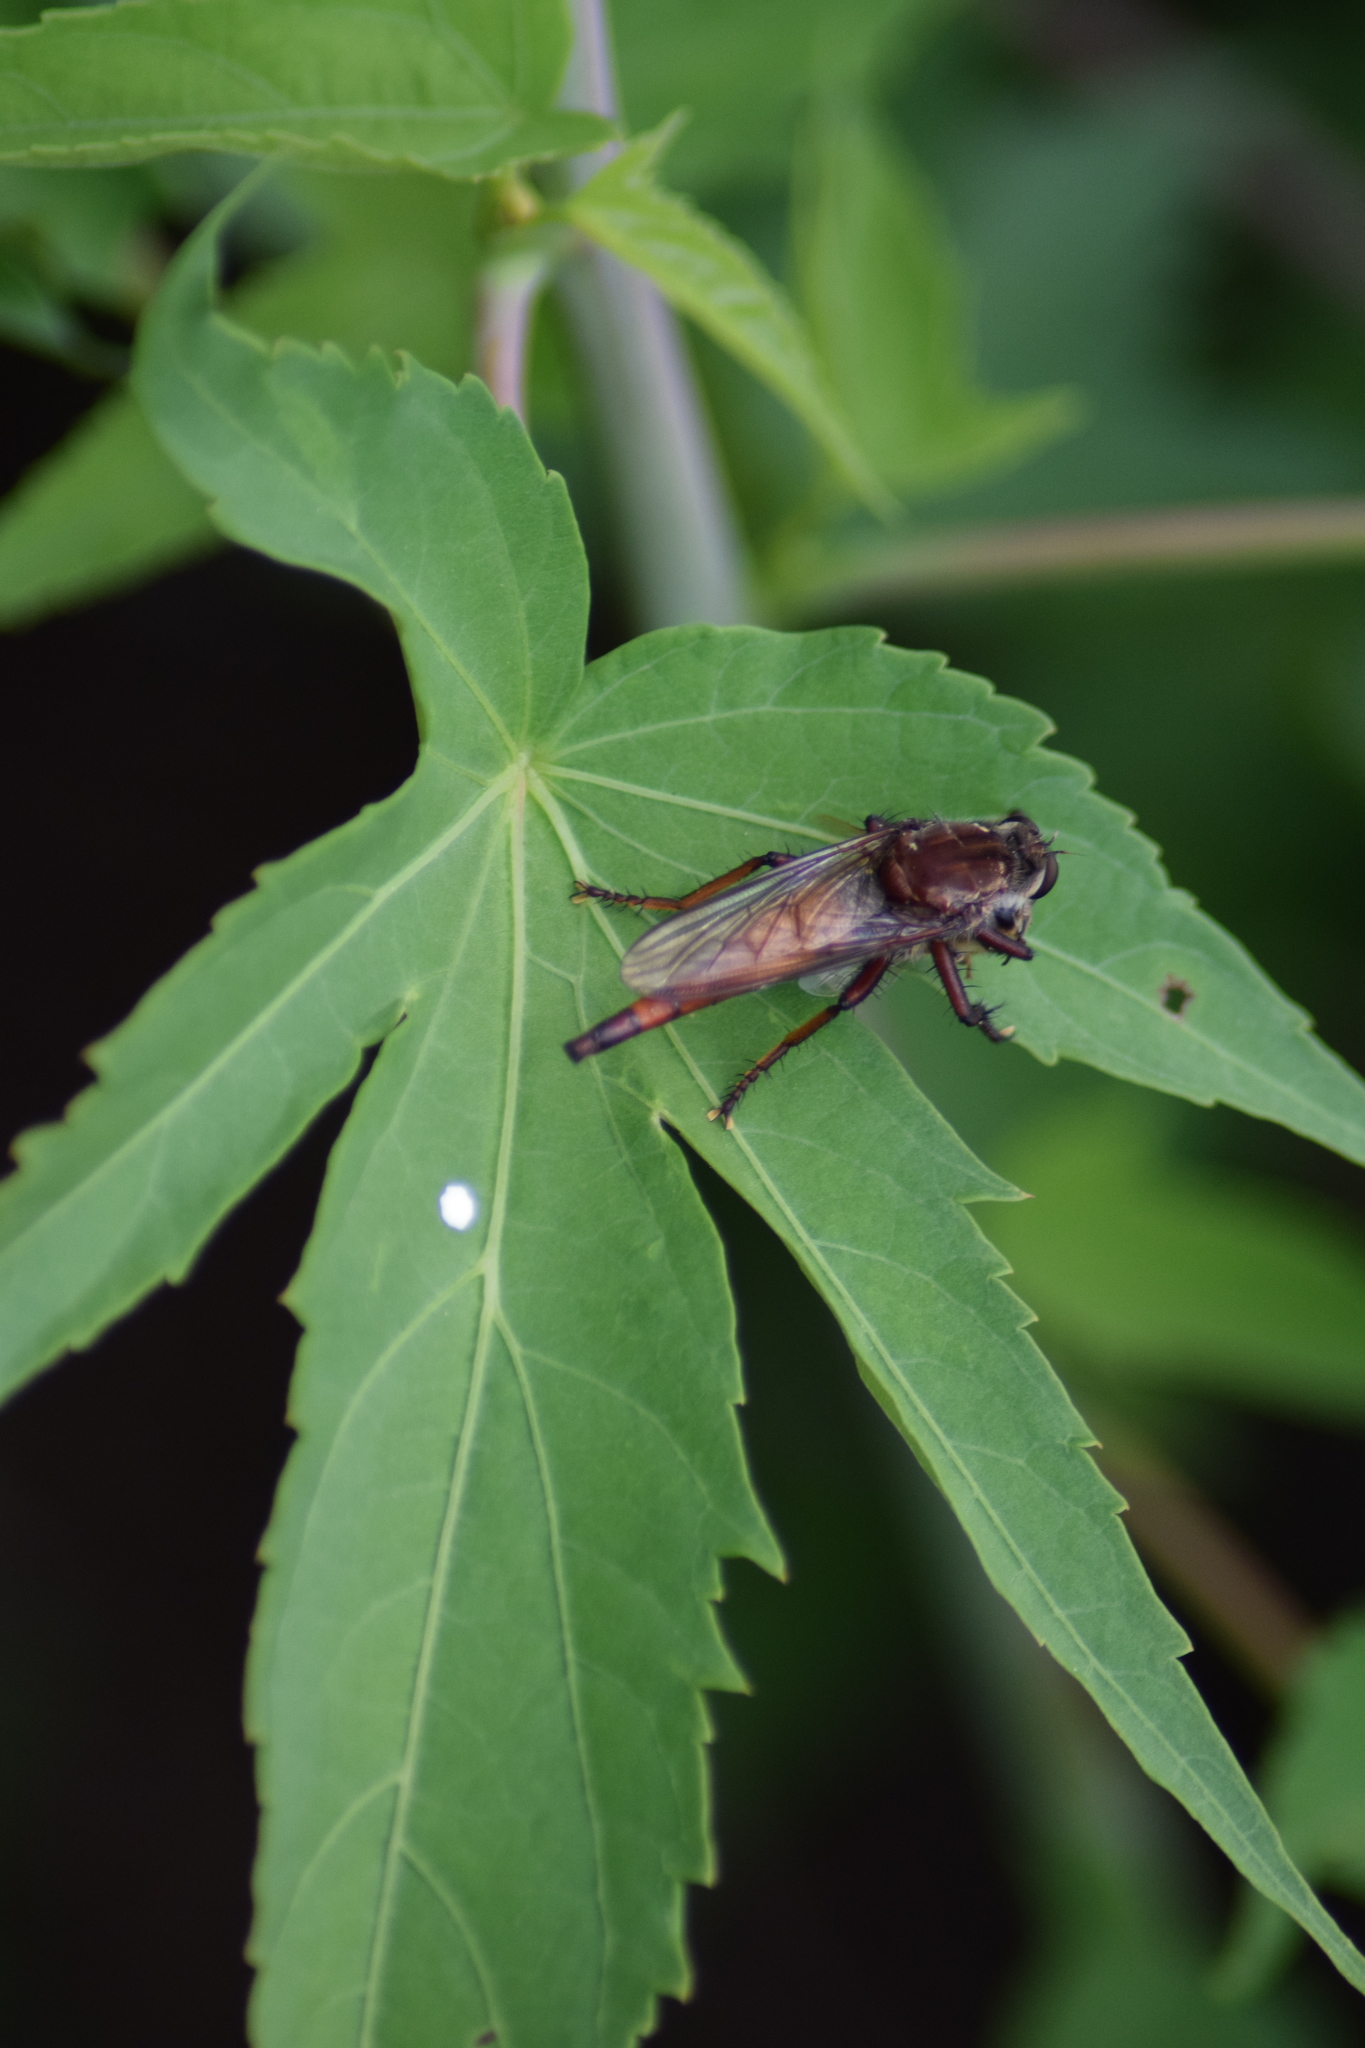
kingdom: Animalia
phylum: Arthropoda
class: Insecta
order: Diptera
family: Asilidae
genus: Proctacanthus
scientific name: Proctacanthus
